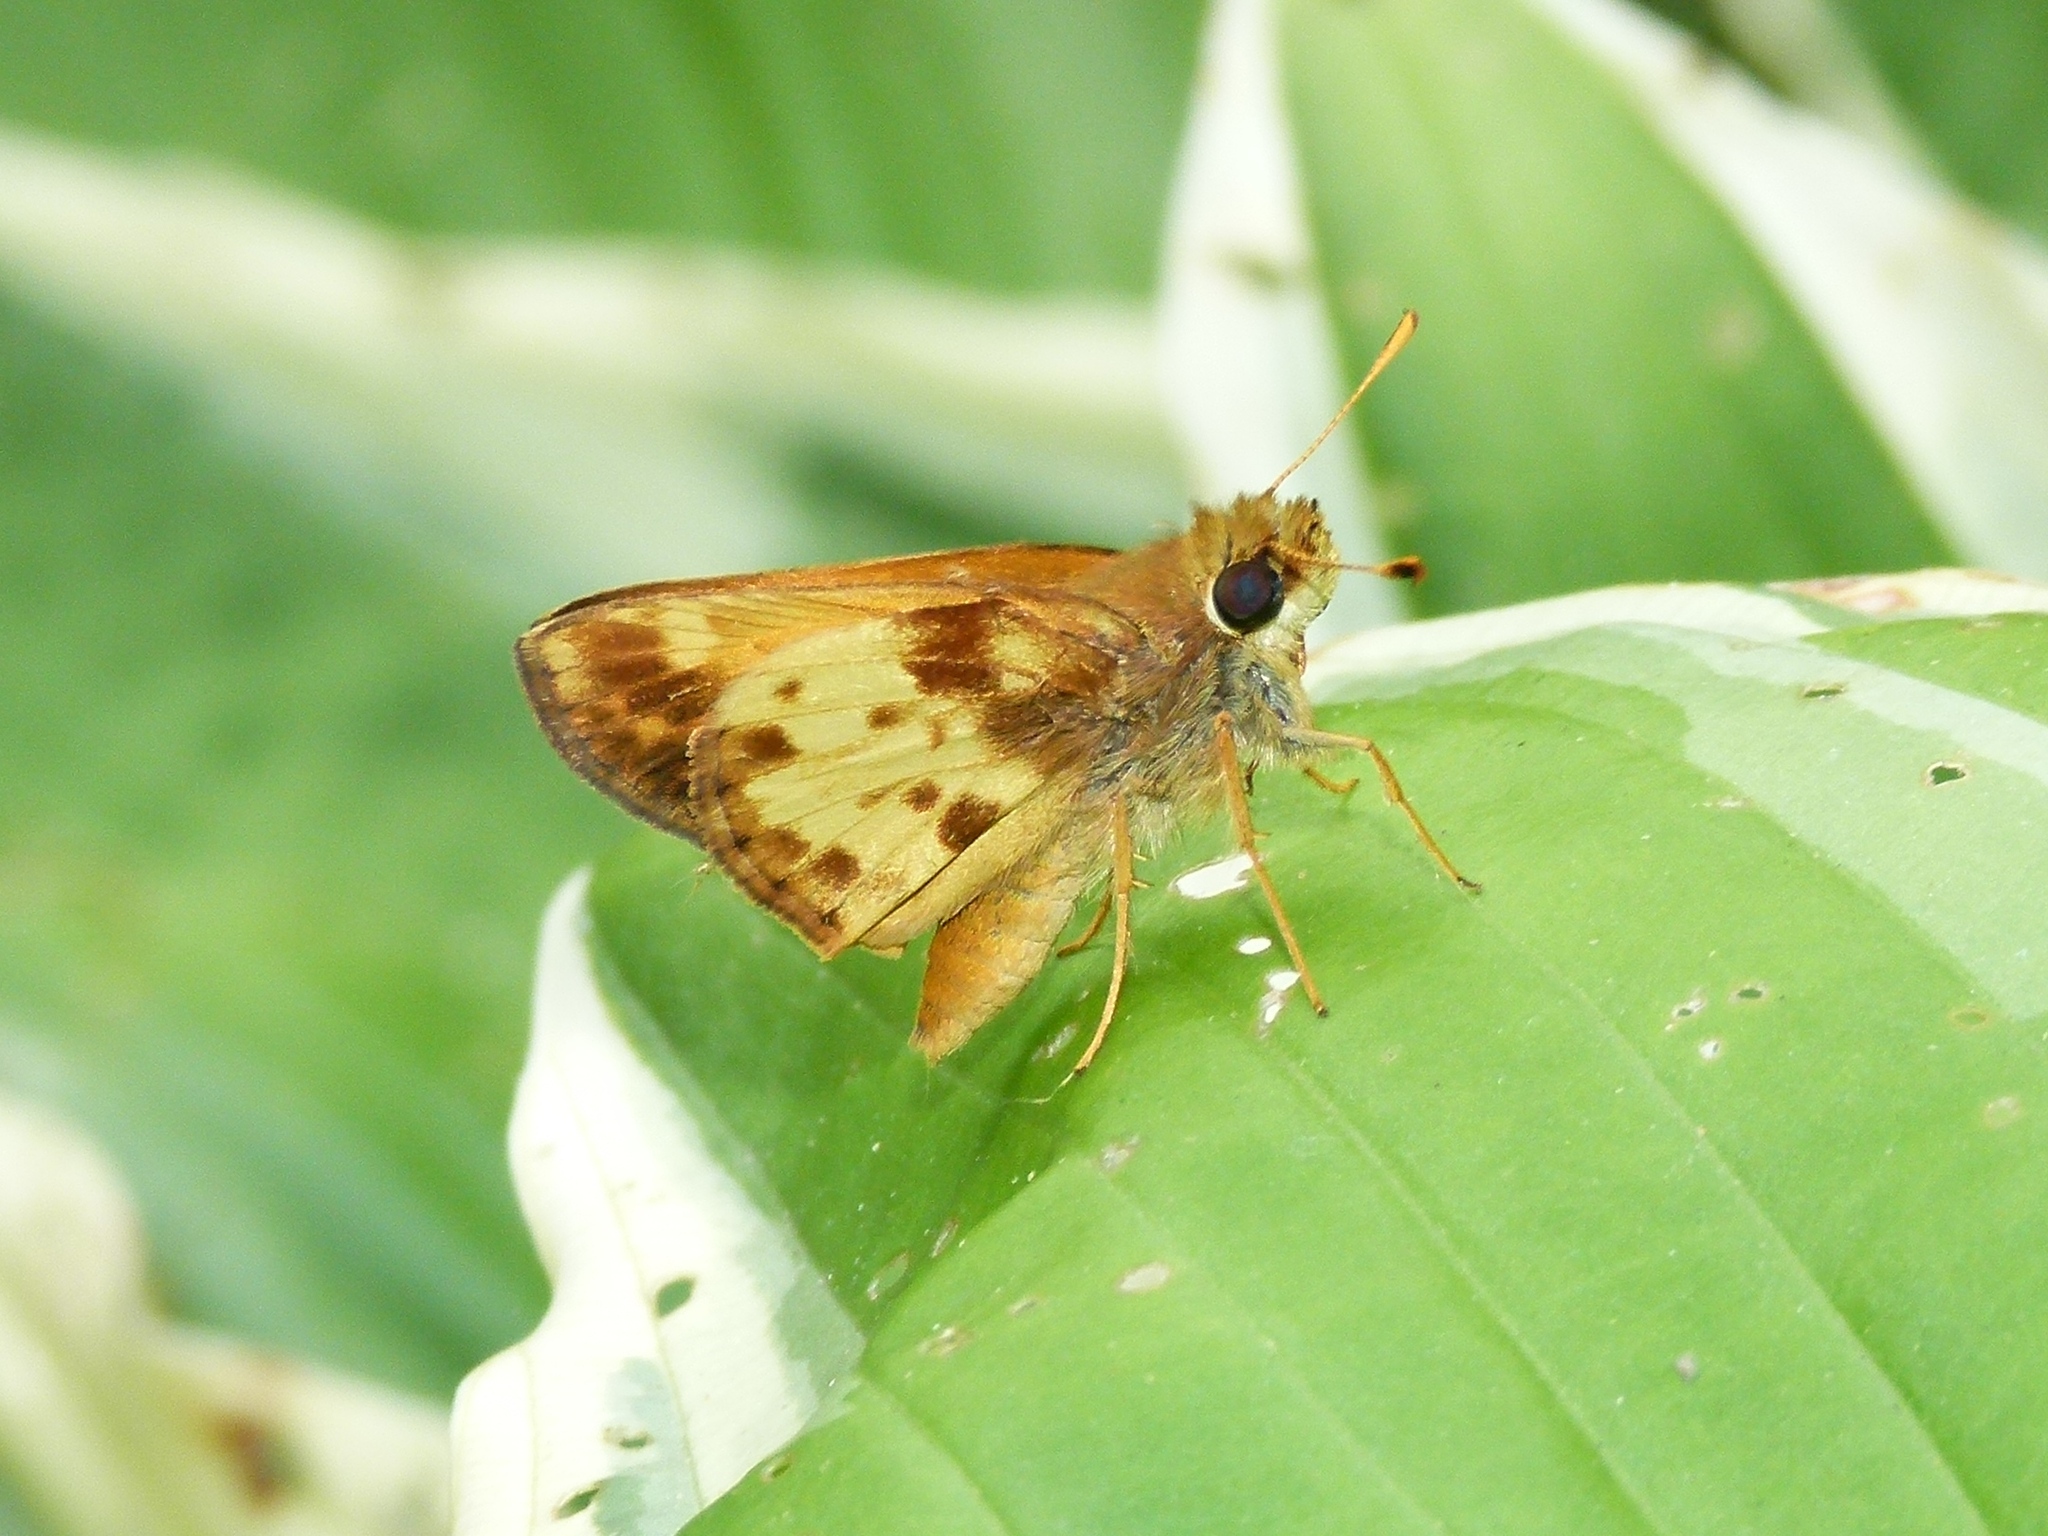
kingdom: Animalia
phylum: Arthropoda
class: Insecta
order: Lepidoptera
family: Hesperiidae
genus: Lon
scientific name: Lon zabulon
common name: Zabulon skipper
